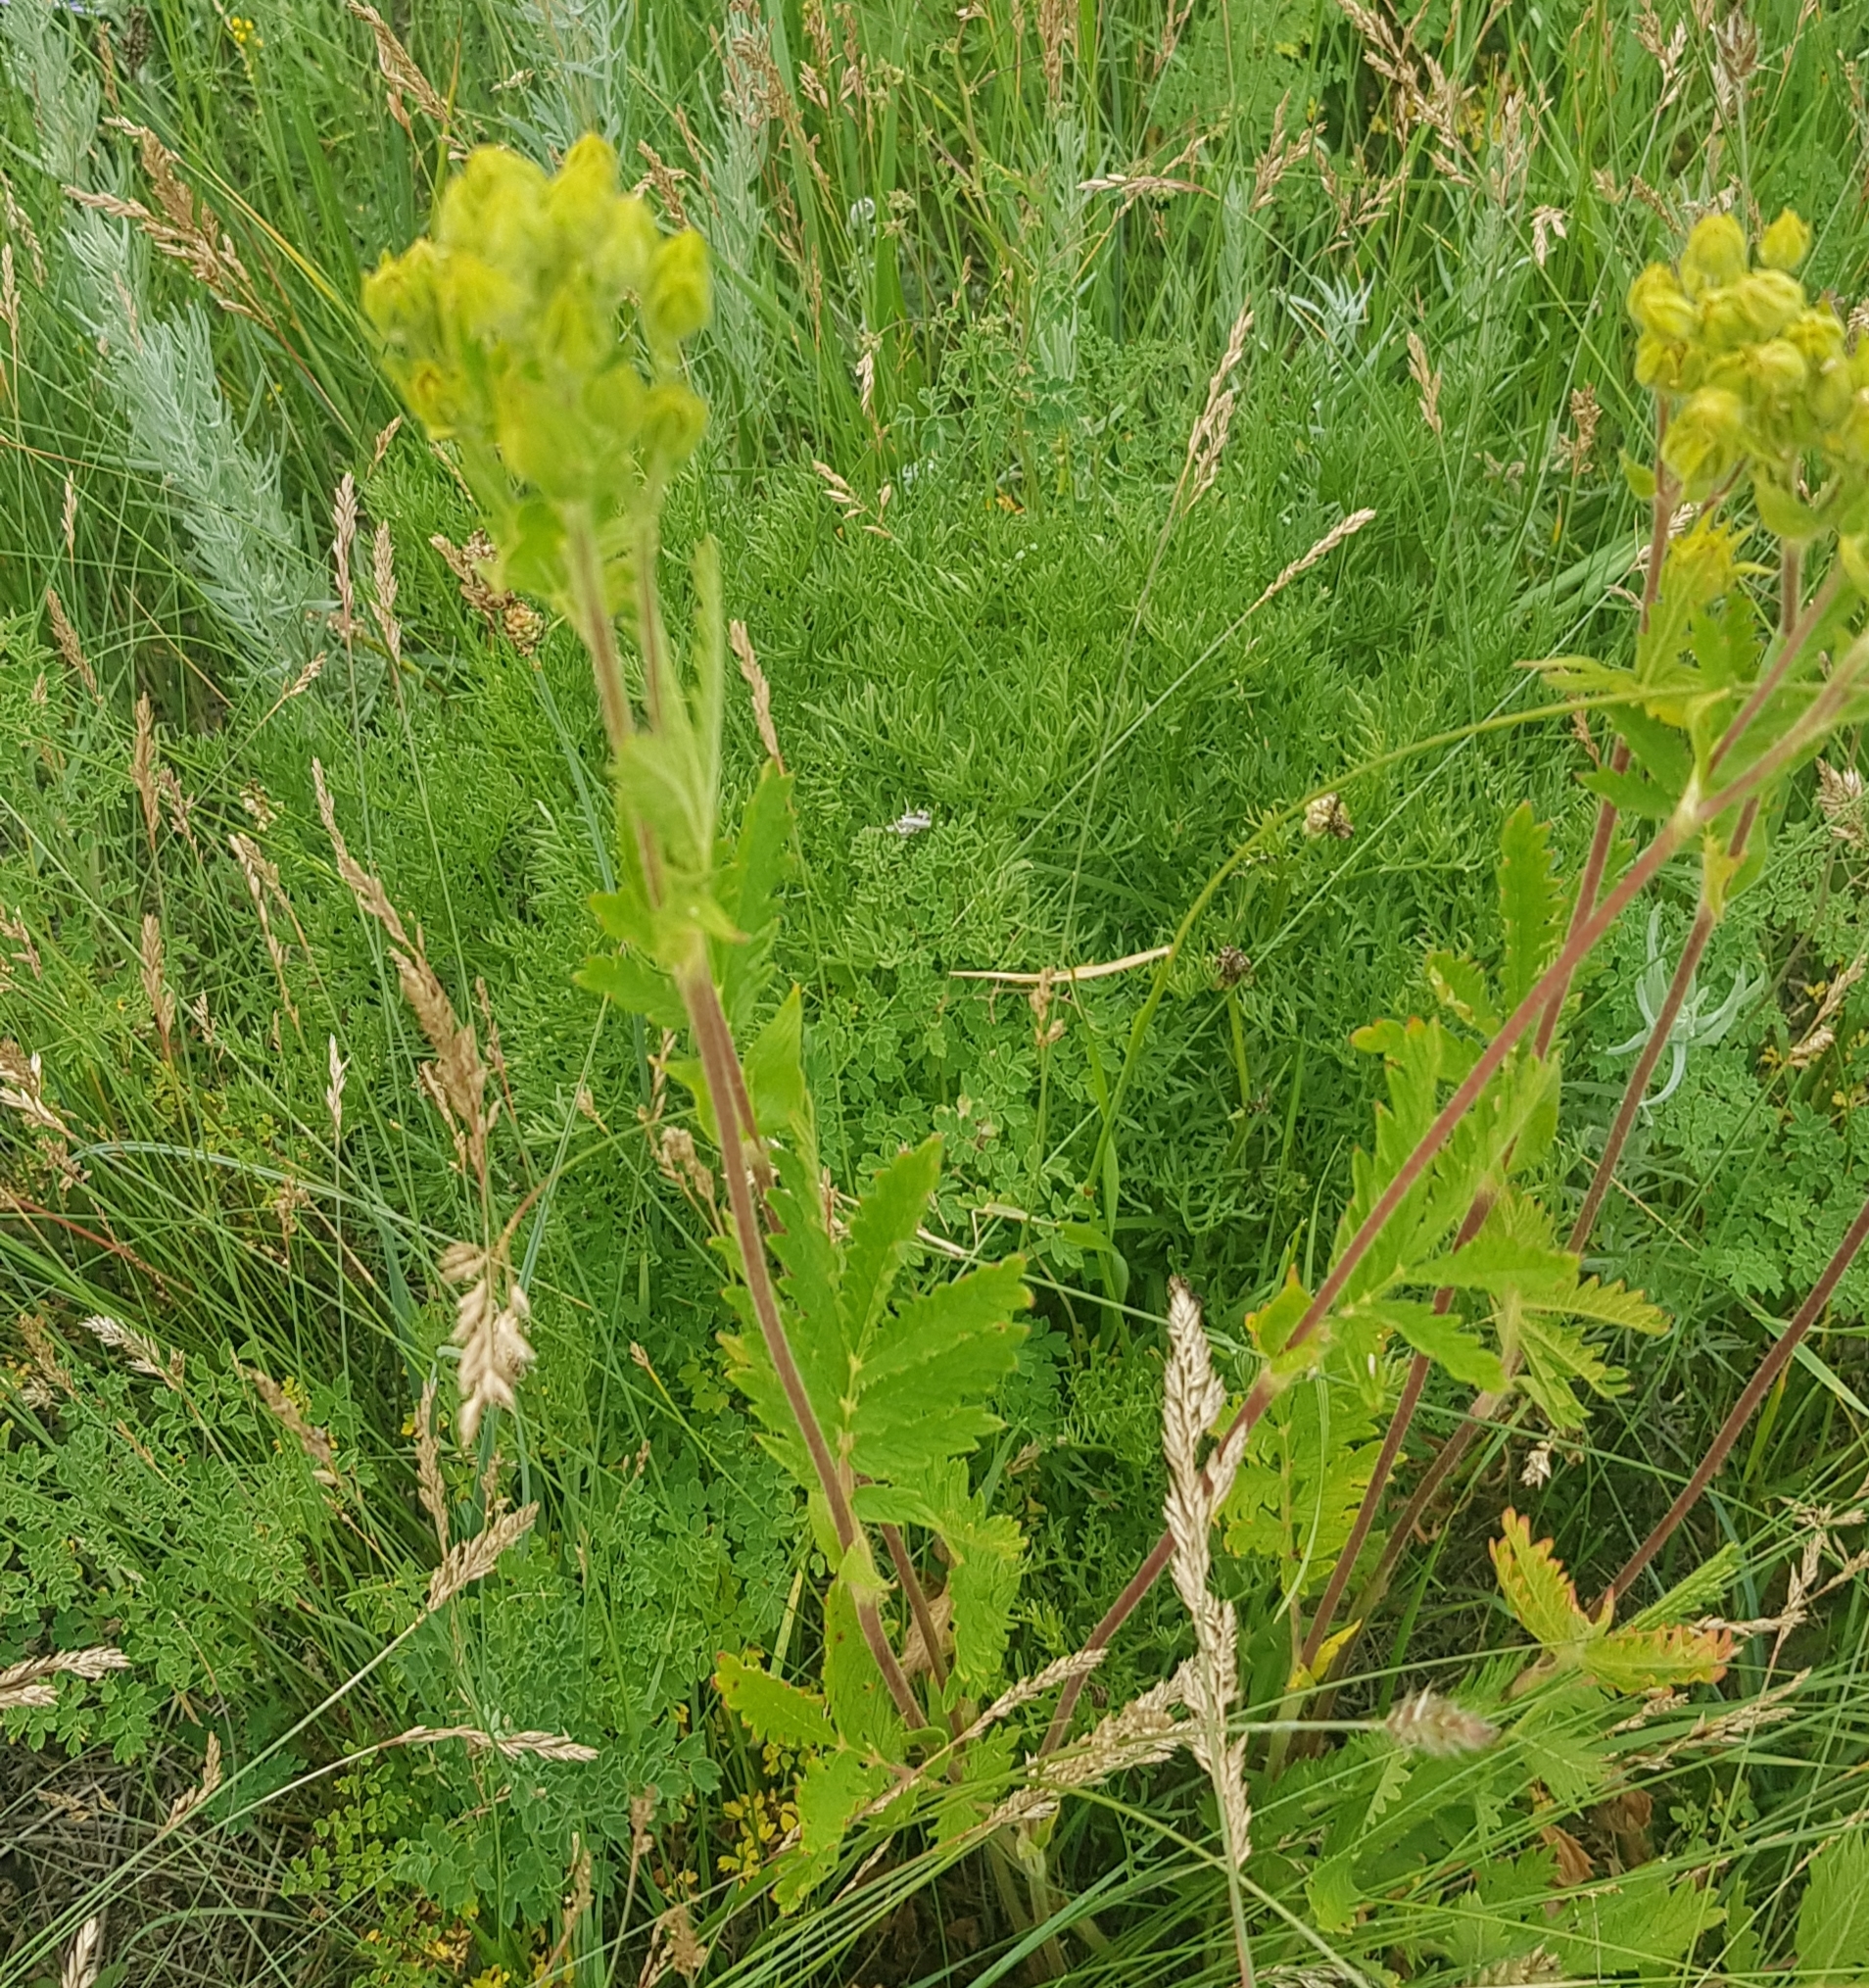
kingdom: Plantae
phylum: Tracheophyta
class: Magnoliopsida
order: Rosales
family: Rosaceae
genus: Potentilla
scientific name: Potentilla tanacetifolia
